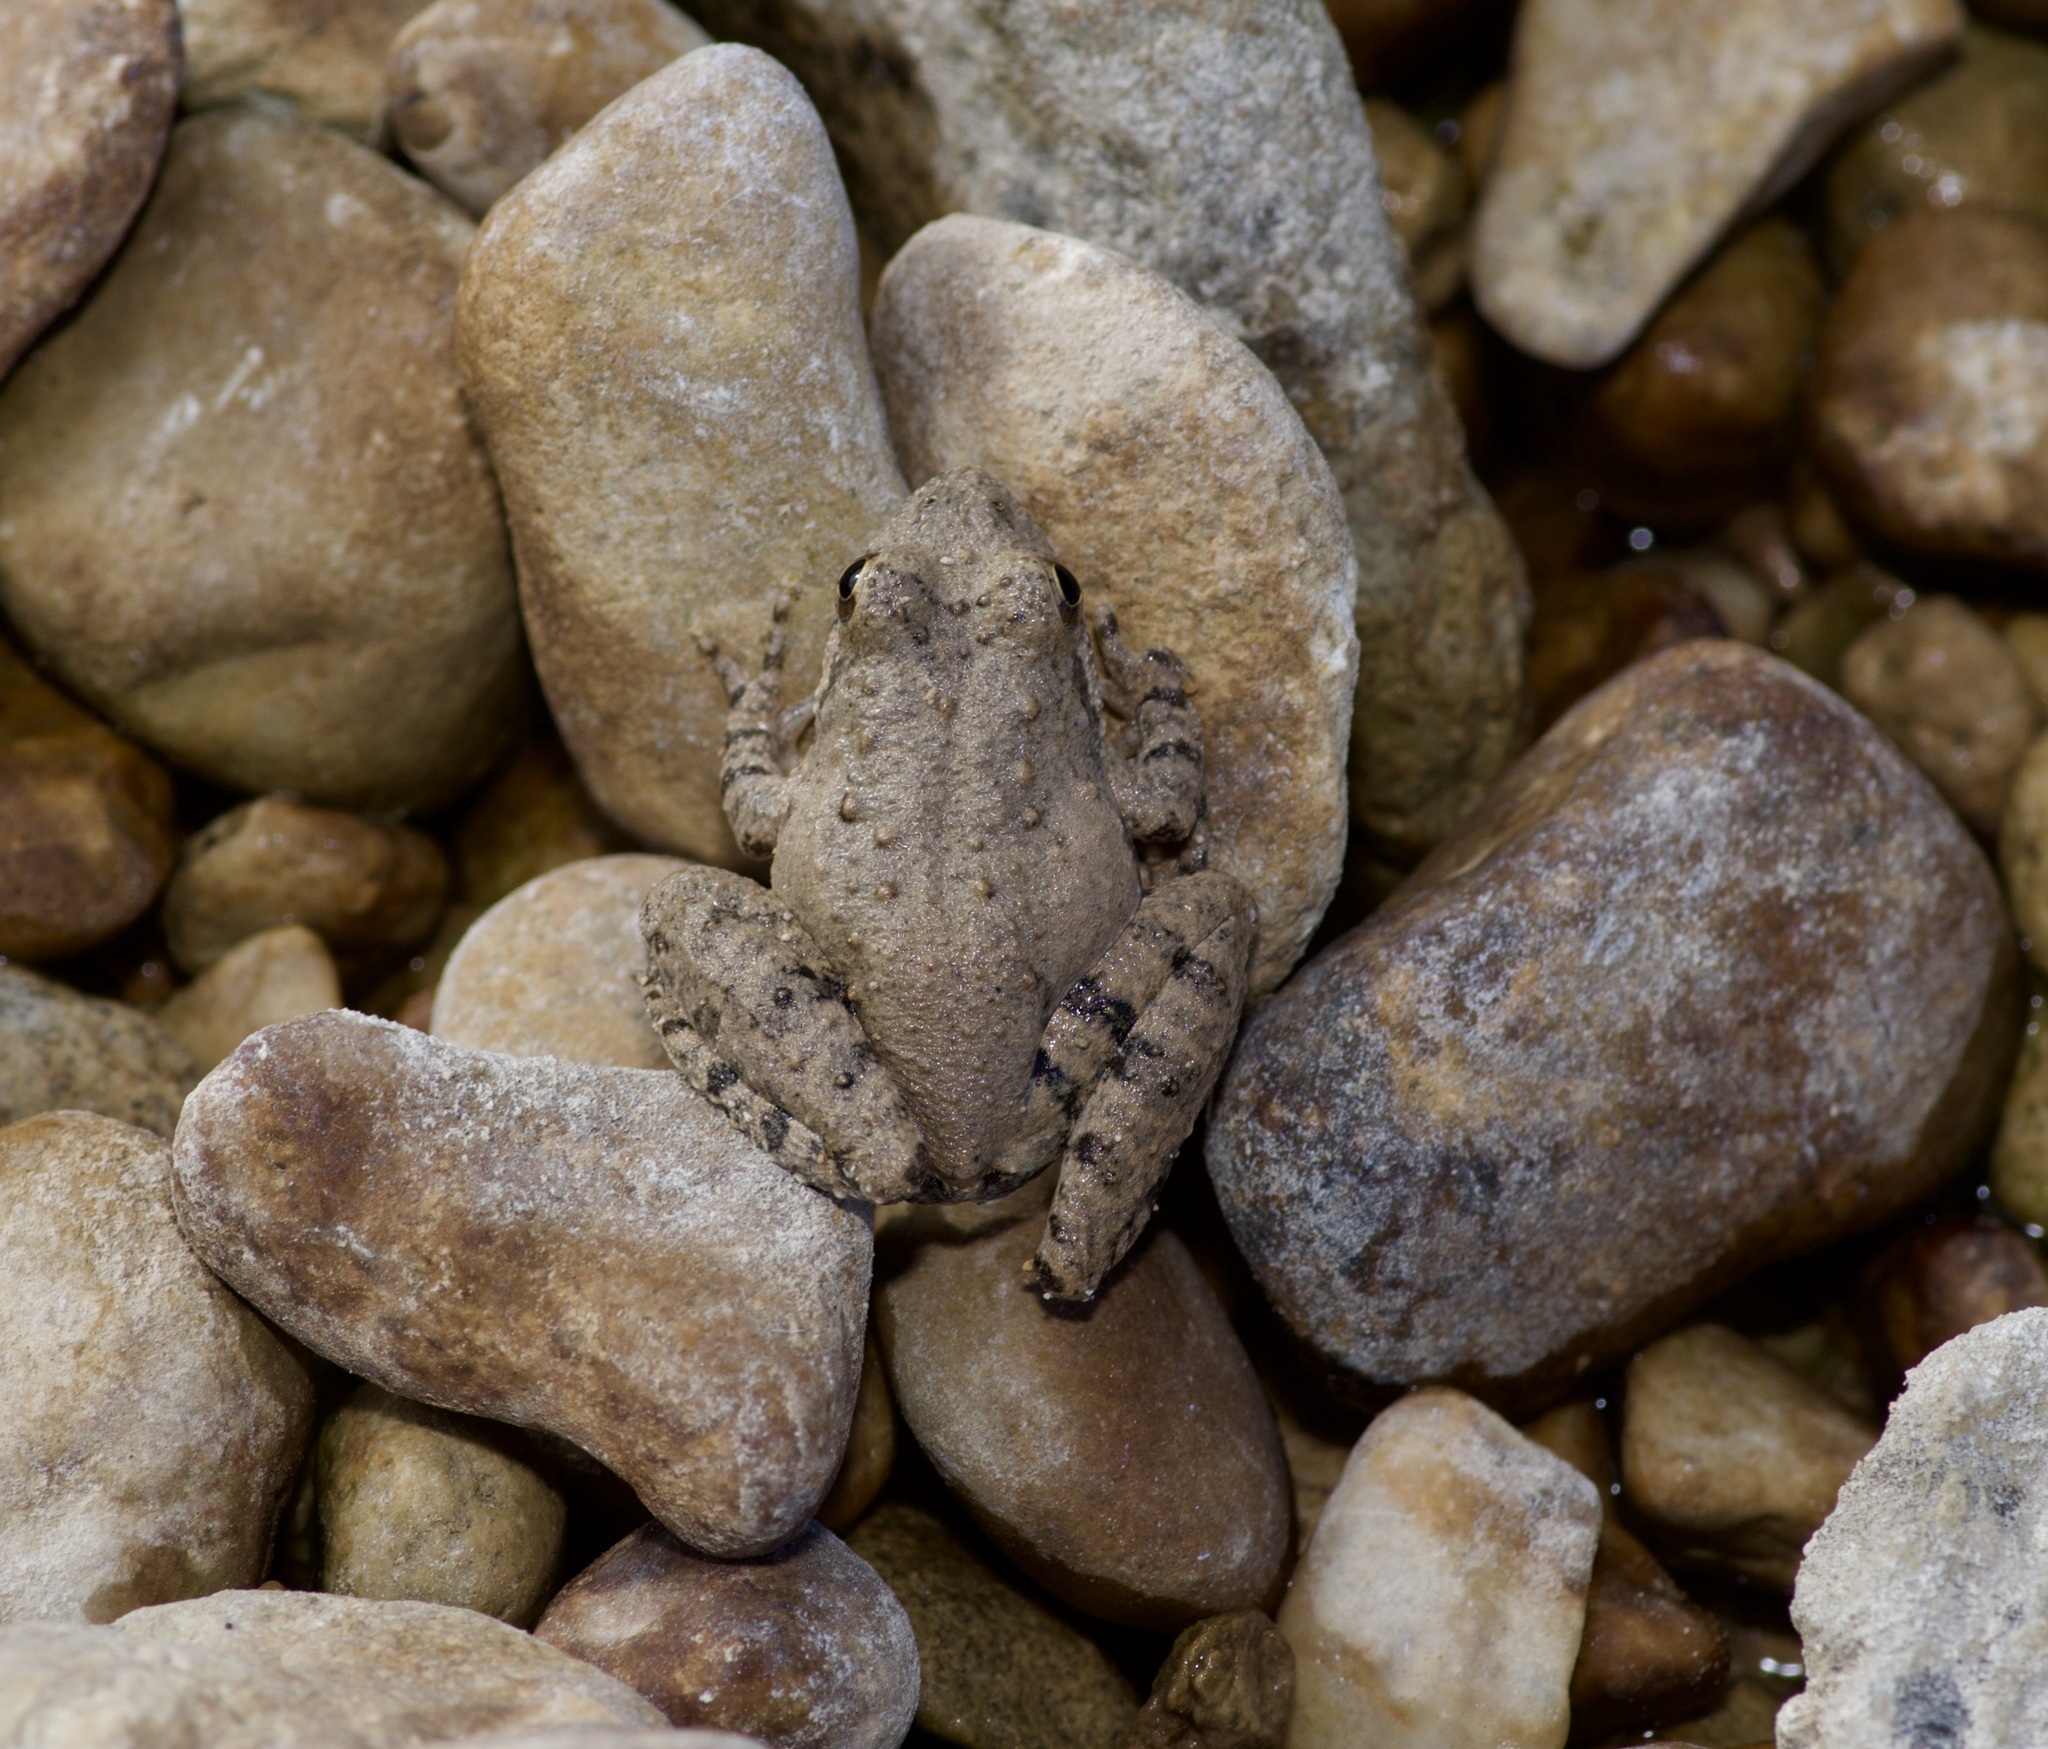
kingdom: Animalia
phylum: Chordata
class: Amphibia
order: Anura
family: Hylidae
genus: Acris
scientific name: Acris blanchardi
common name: Blanchard's cricket frog
